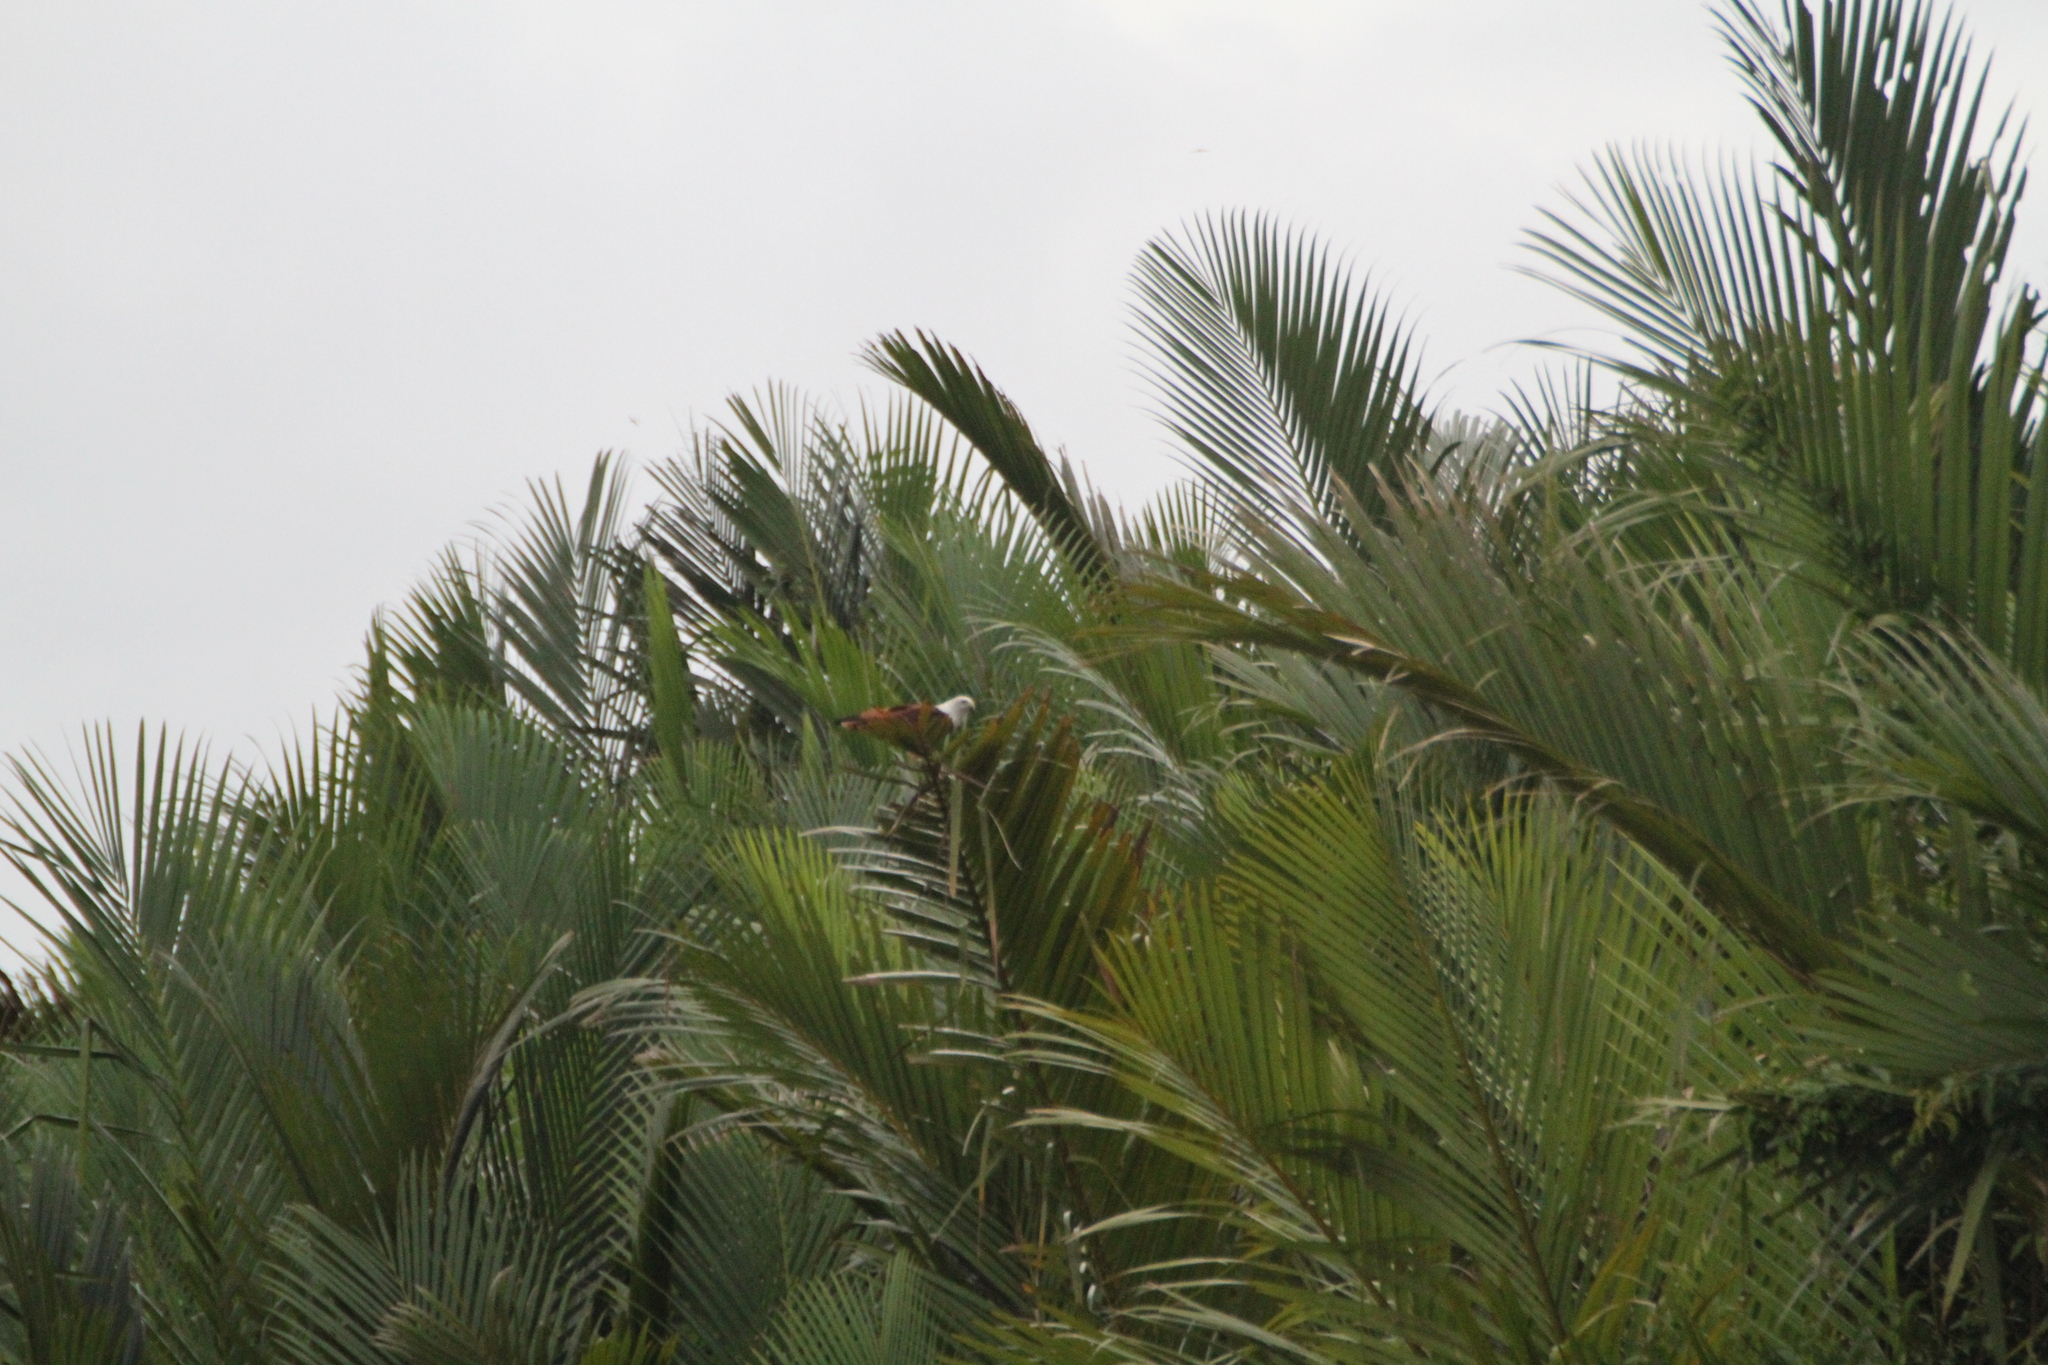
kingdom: Animalia
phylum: Chordata
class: Aves
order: Accipitriformes
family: Accipitridae
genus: Haliastur
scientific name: Haliastur indus
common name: Brahminy kite
